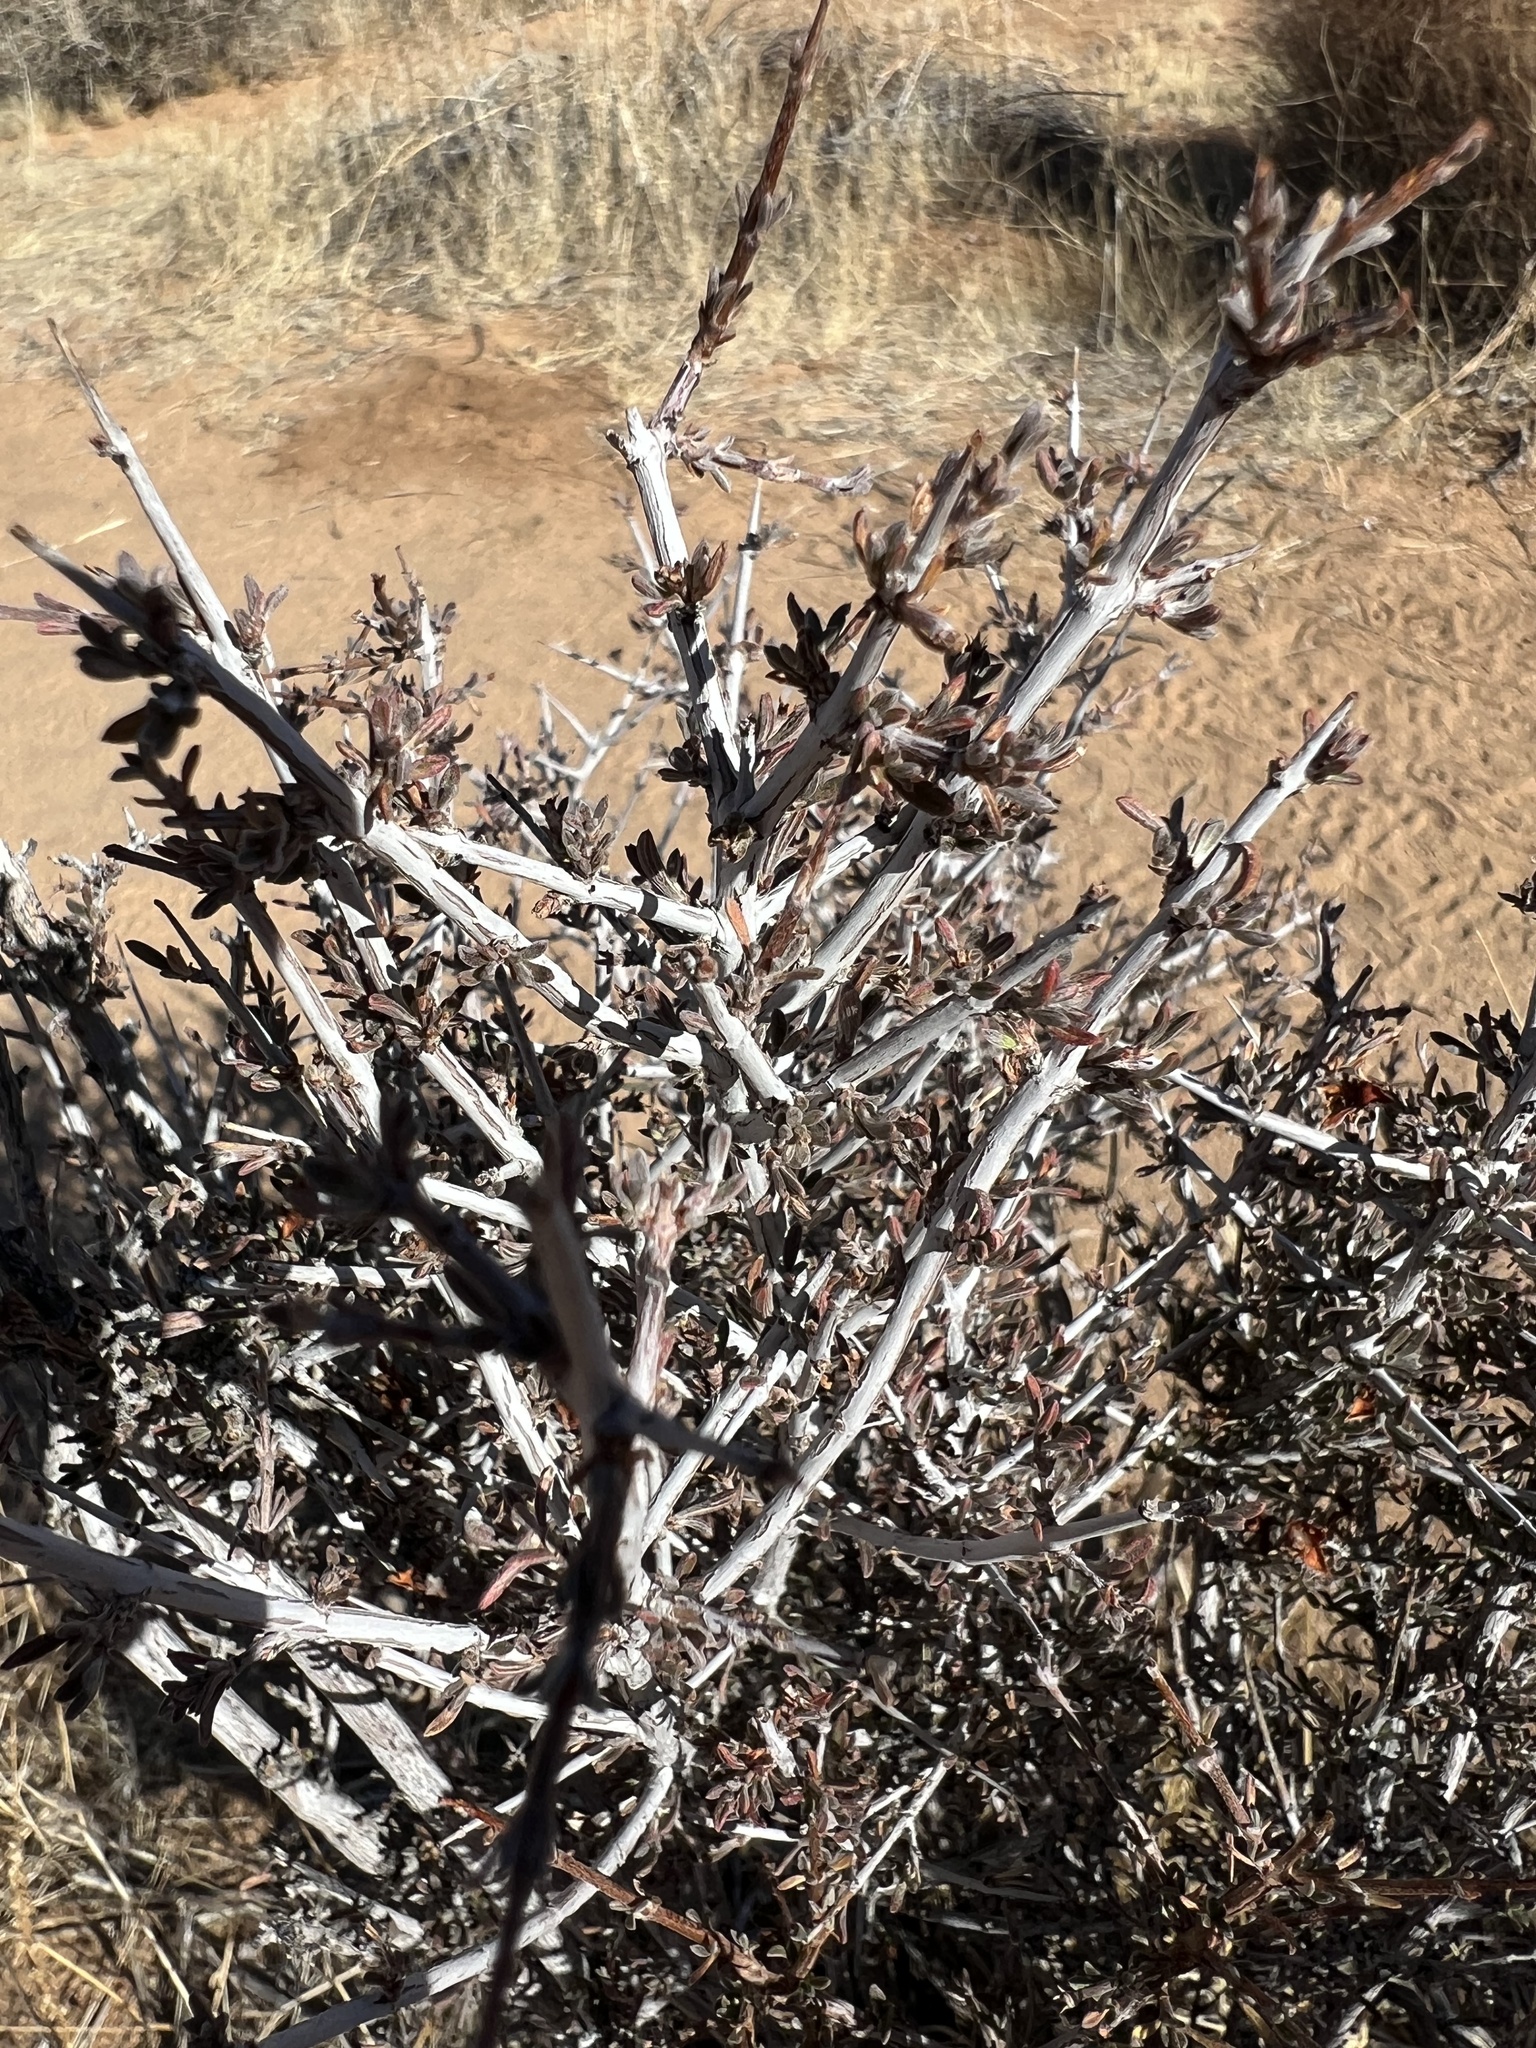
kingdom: Plantae
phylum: Tracheophyta
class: Magnoliopsida
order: Rosales
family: Rosaceae
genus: Coleogyne
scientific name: Coleogyne ramosissima
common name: Blackbrush
